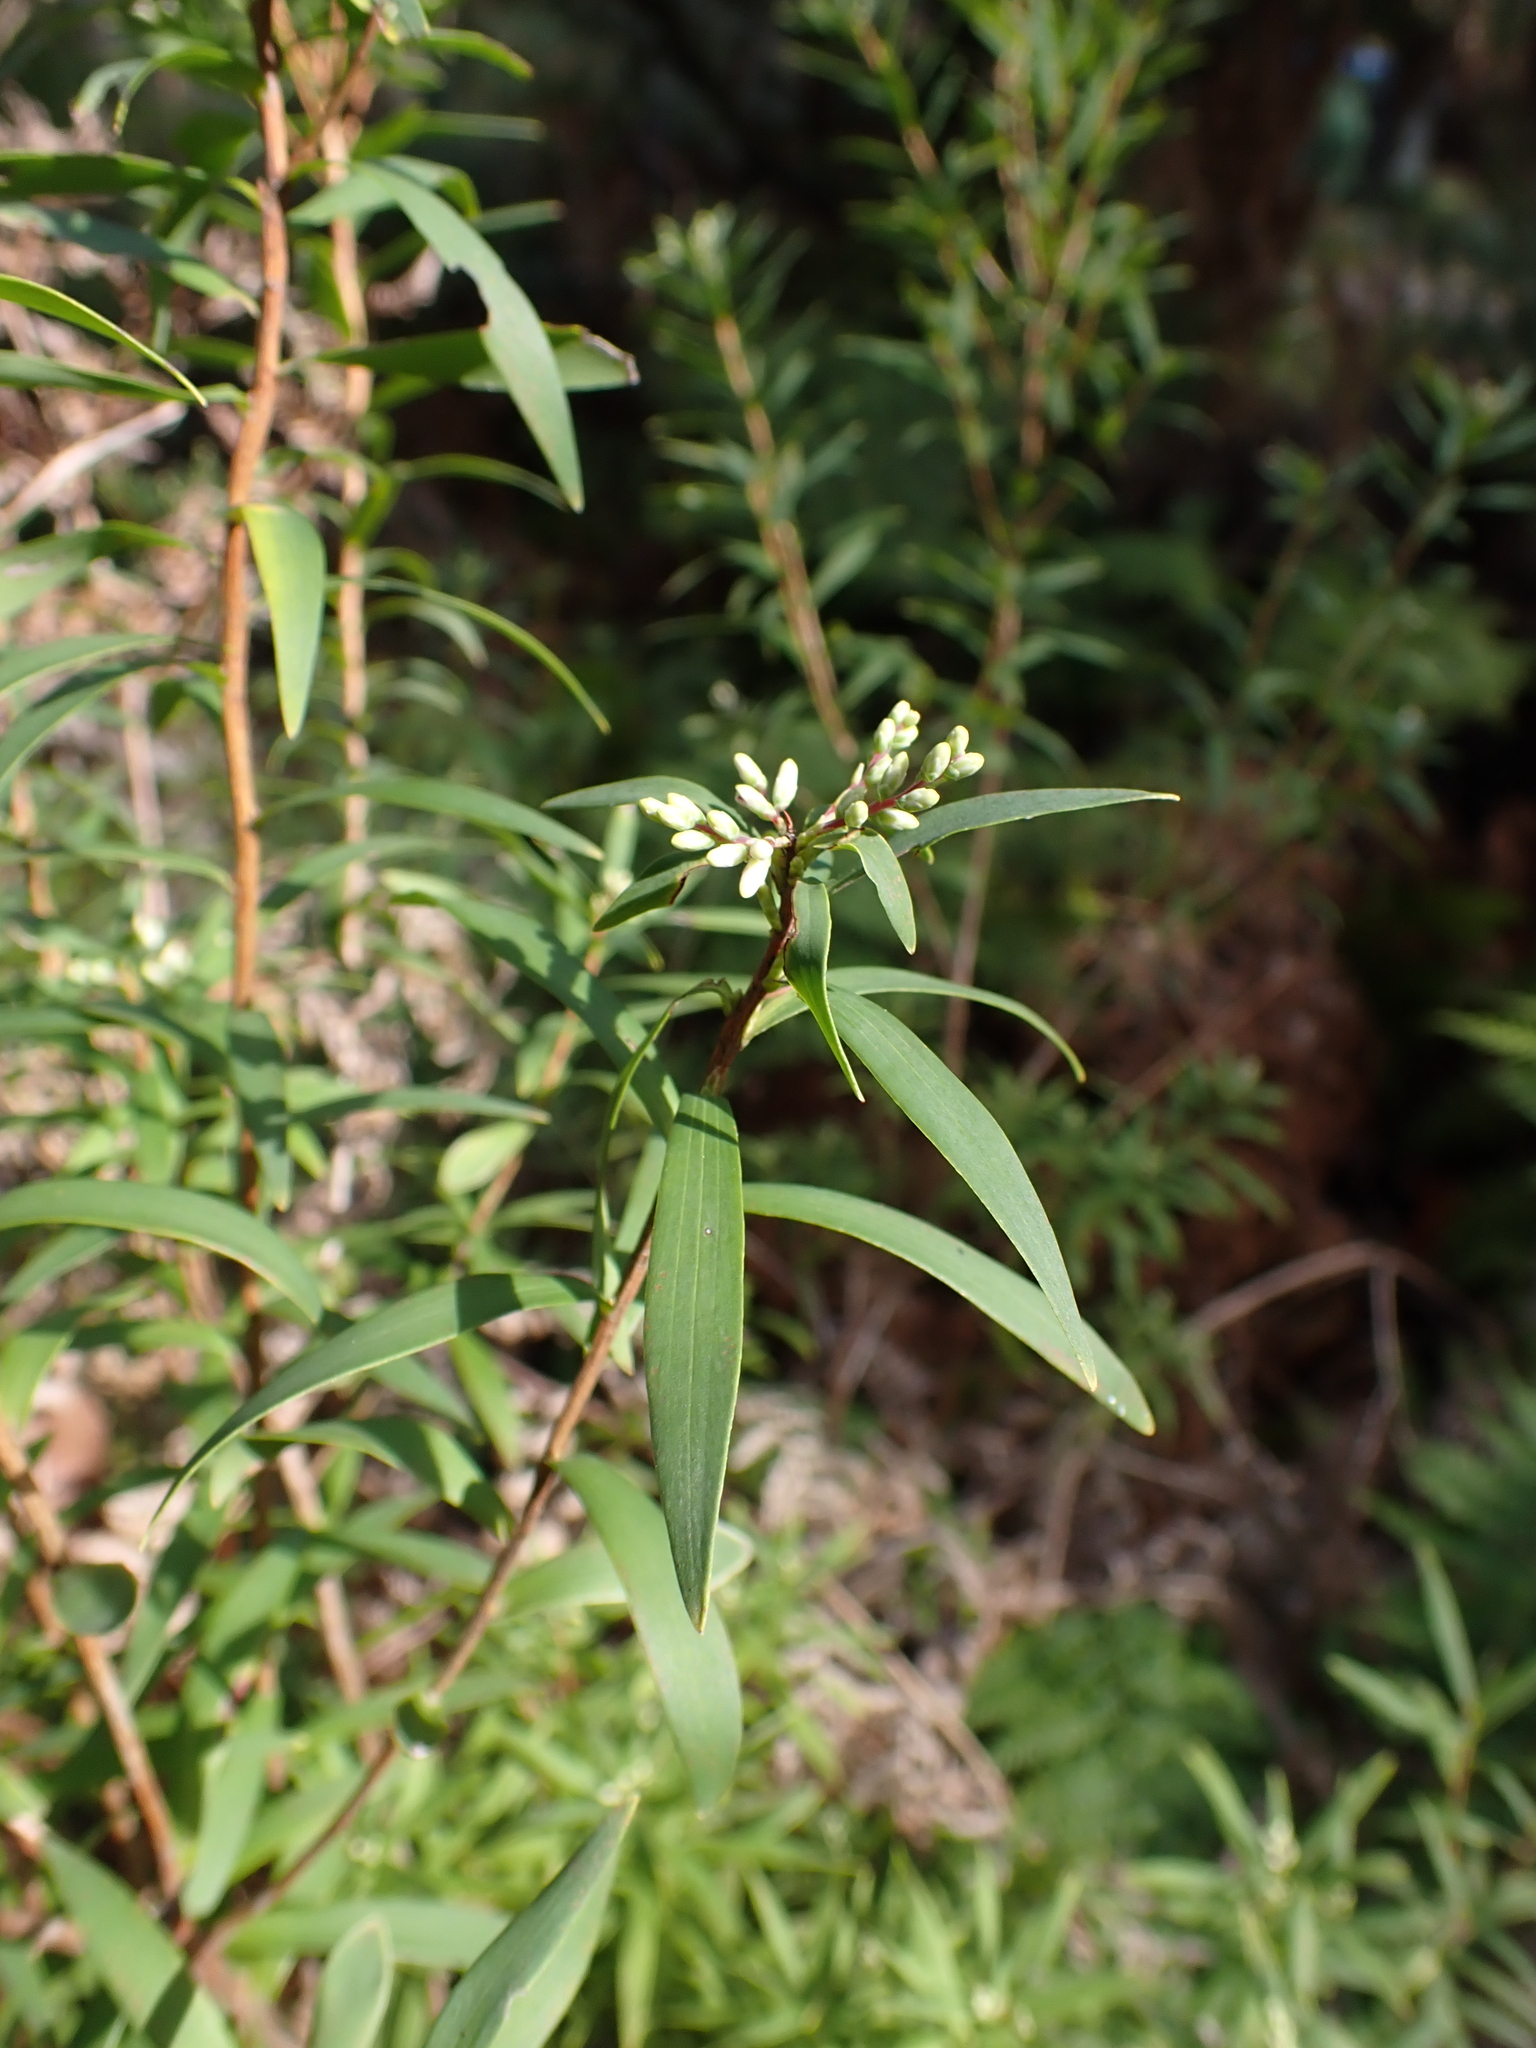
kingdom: Plantae
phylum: Tracheophyta
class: Magnoliopsida
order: Ericales
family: Ericaceae
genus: Leucopogon
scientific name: Leucopogon australis
